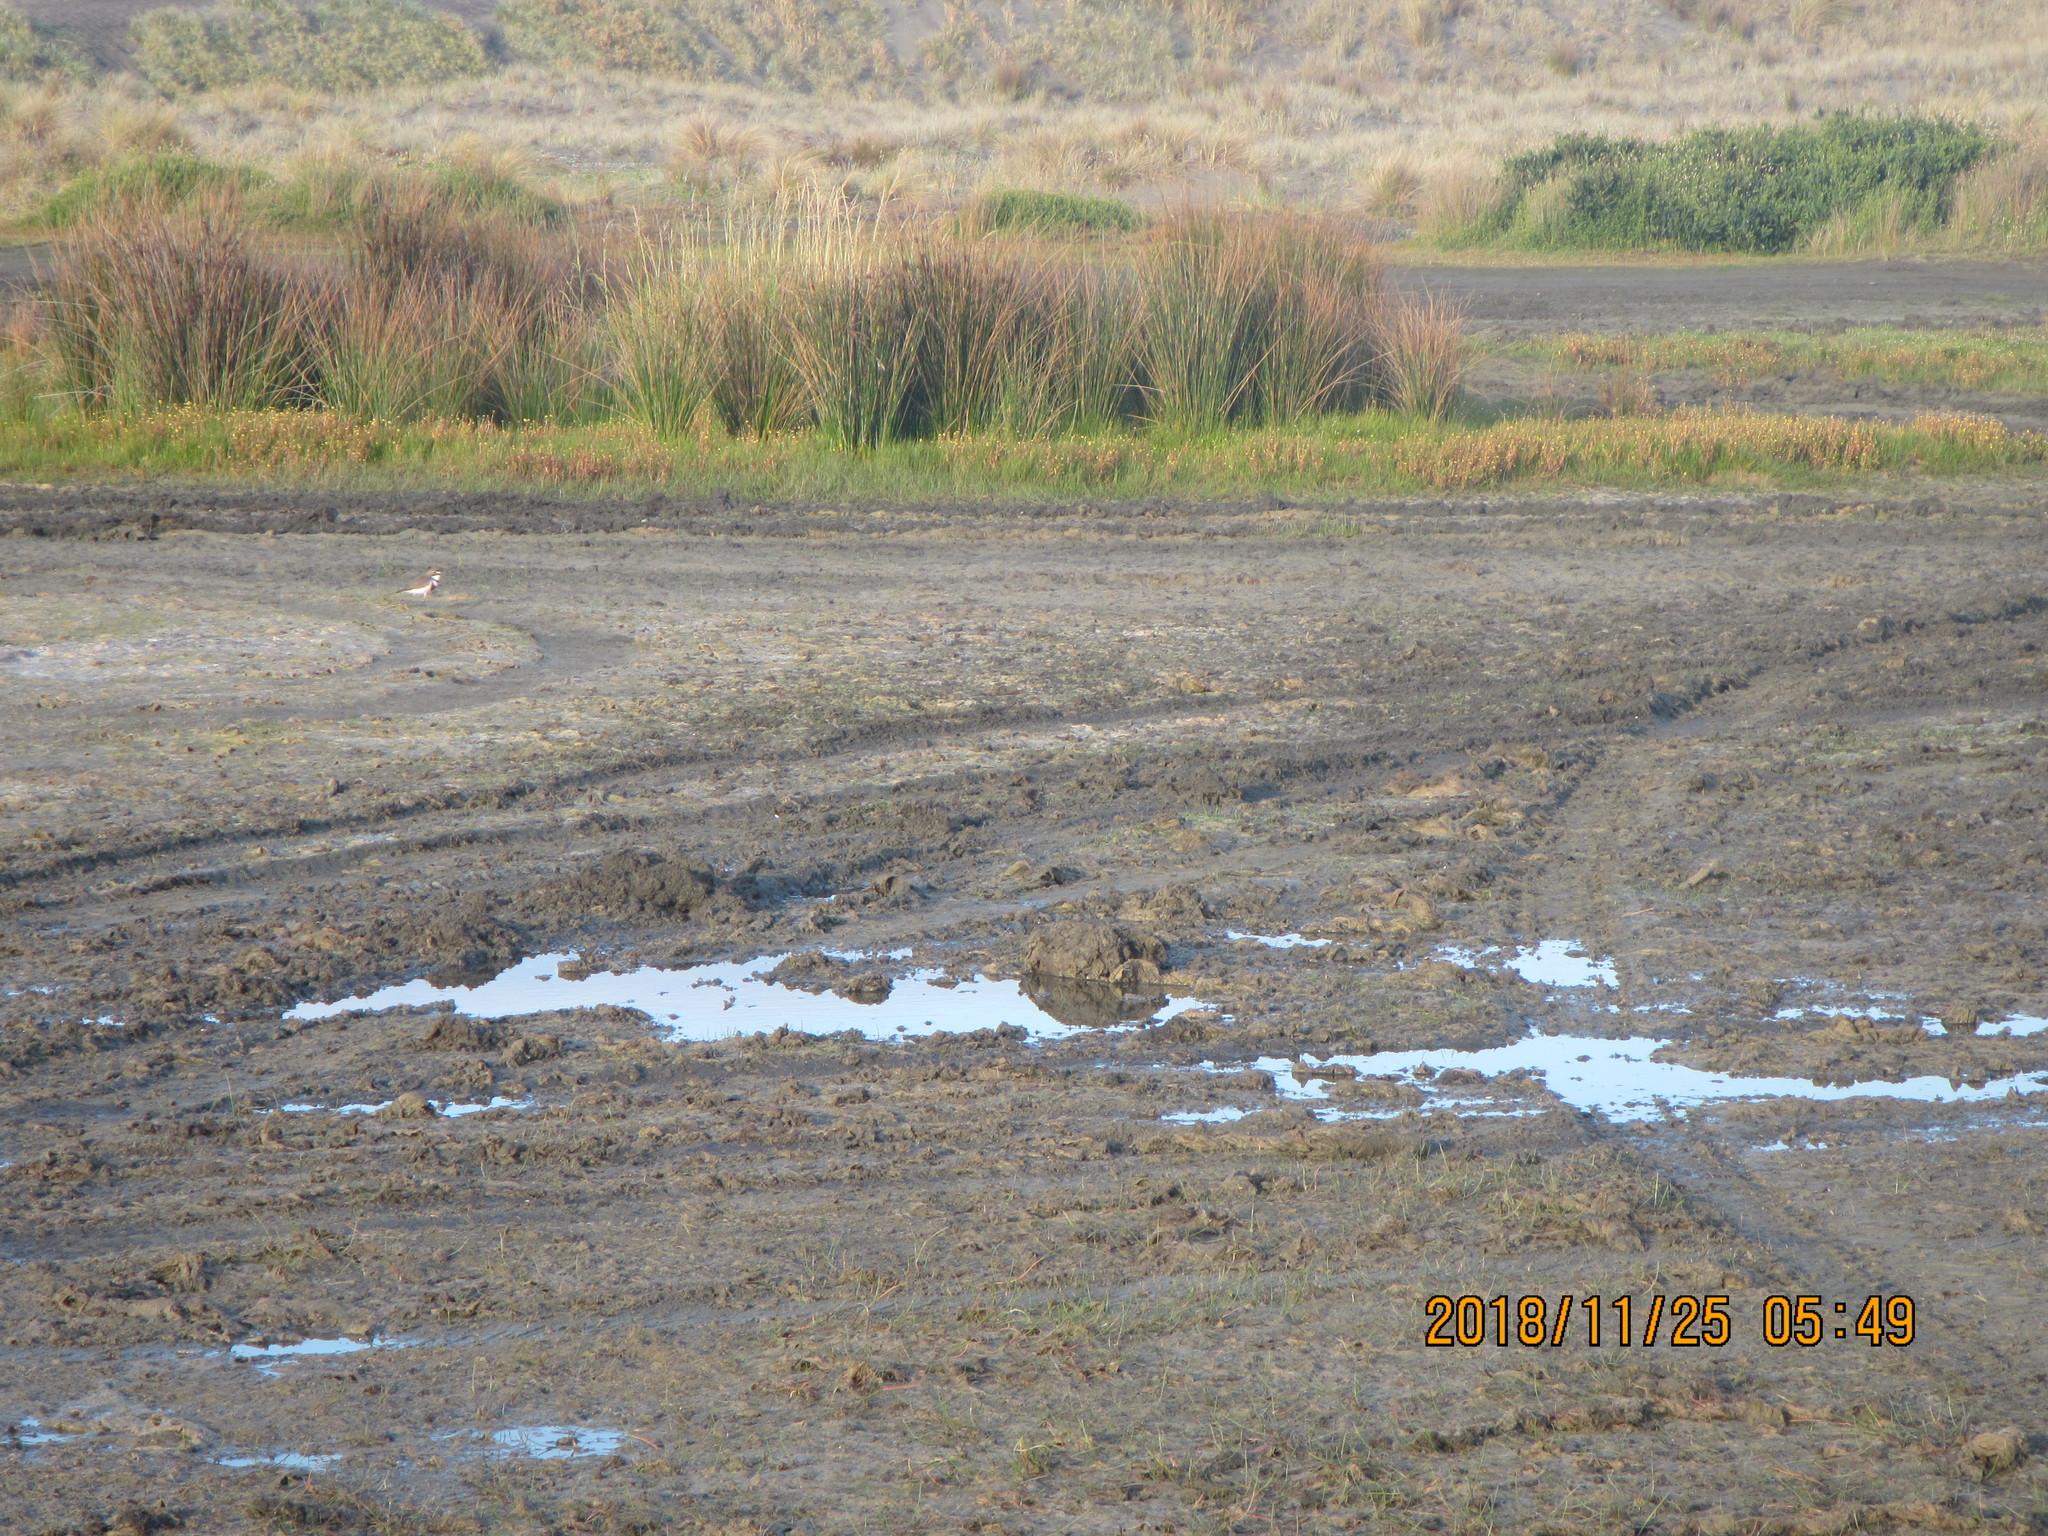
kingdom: Animalia
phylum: Chordata
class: Aves
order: Charadriiformes
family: Charadriidae
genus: Anarhynchus
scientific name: Anarhynchus
